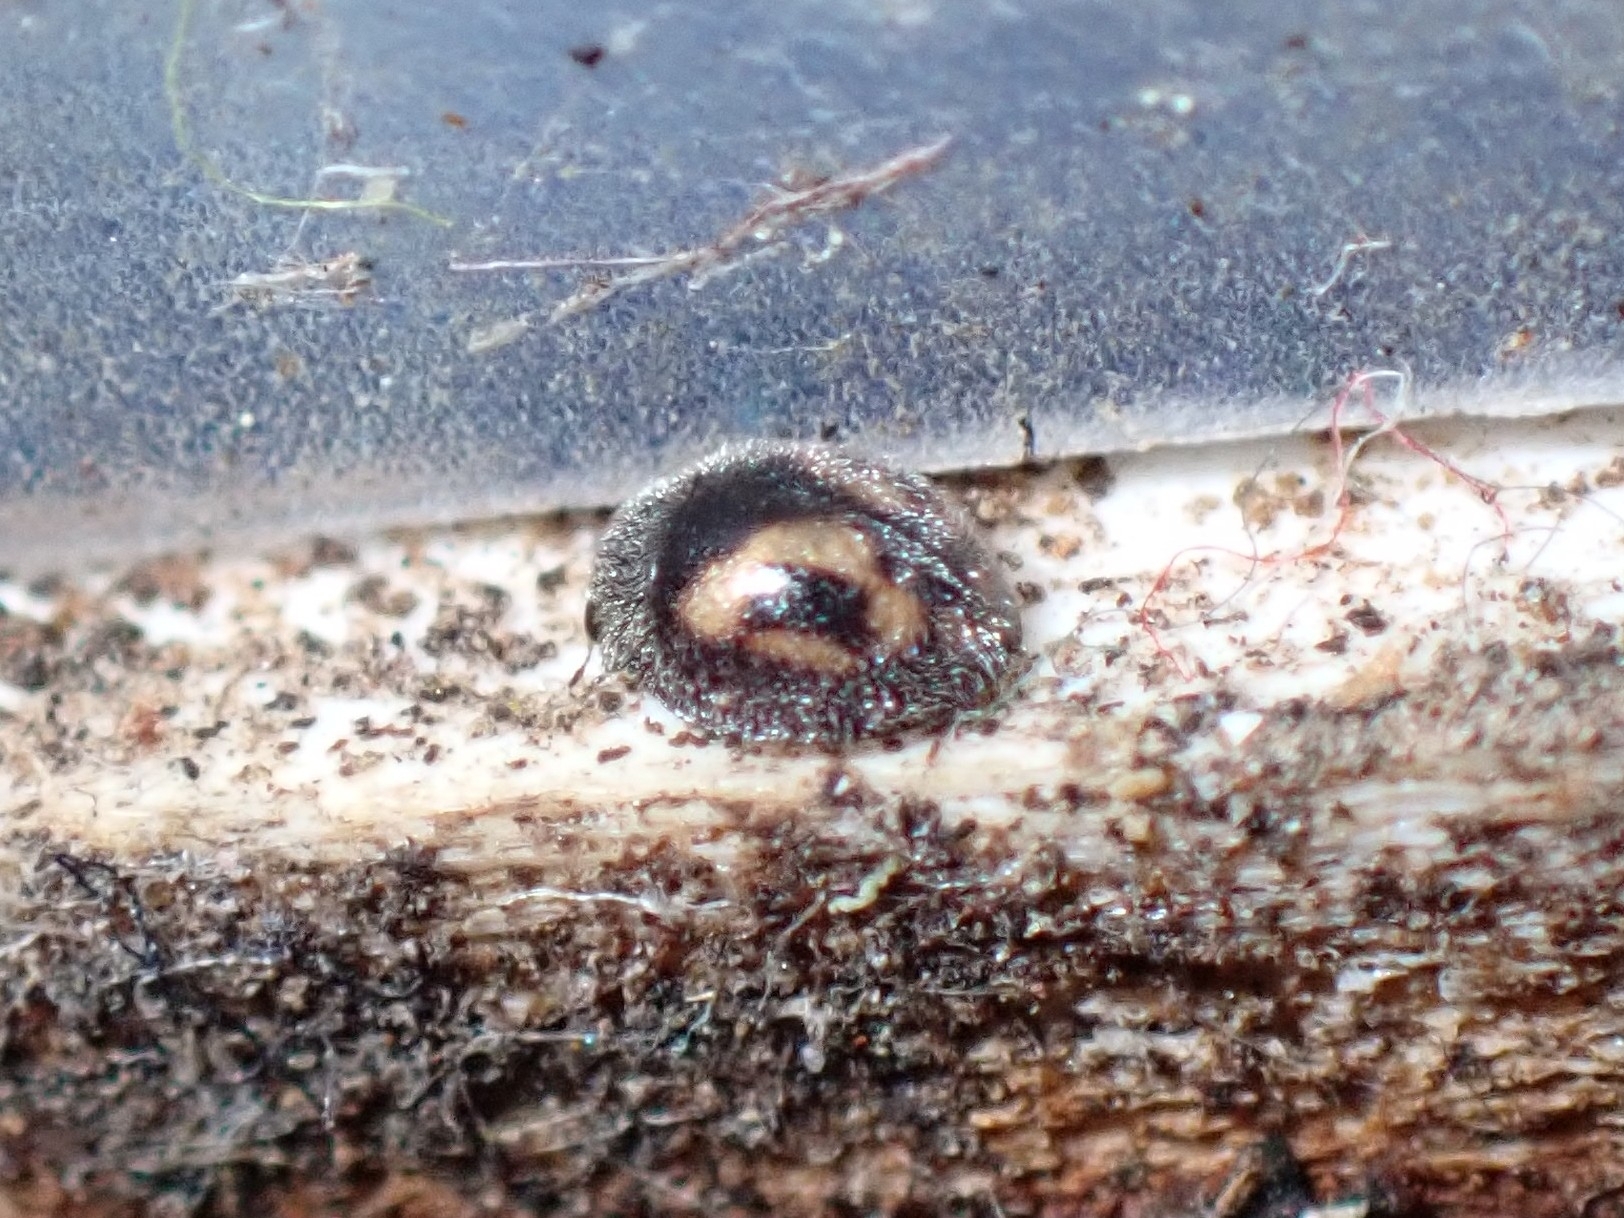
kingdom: Animalia
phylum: Arthropoda
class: Insecta
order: Coleoptera
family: Coccinellidae
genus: Pharoscymnus
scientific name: Pharoscymnus decemplagiatus
